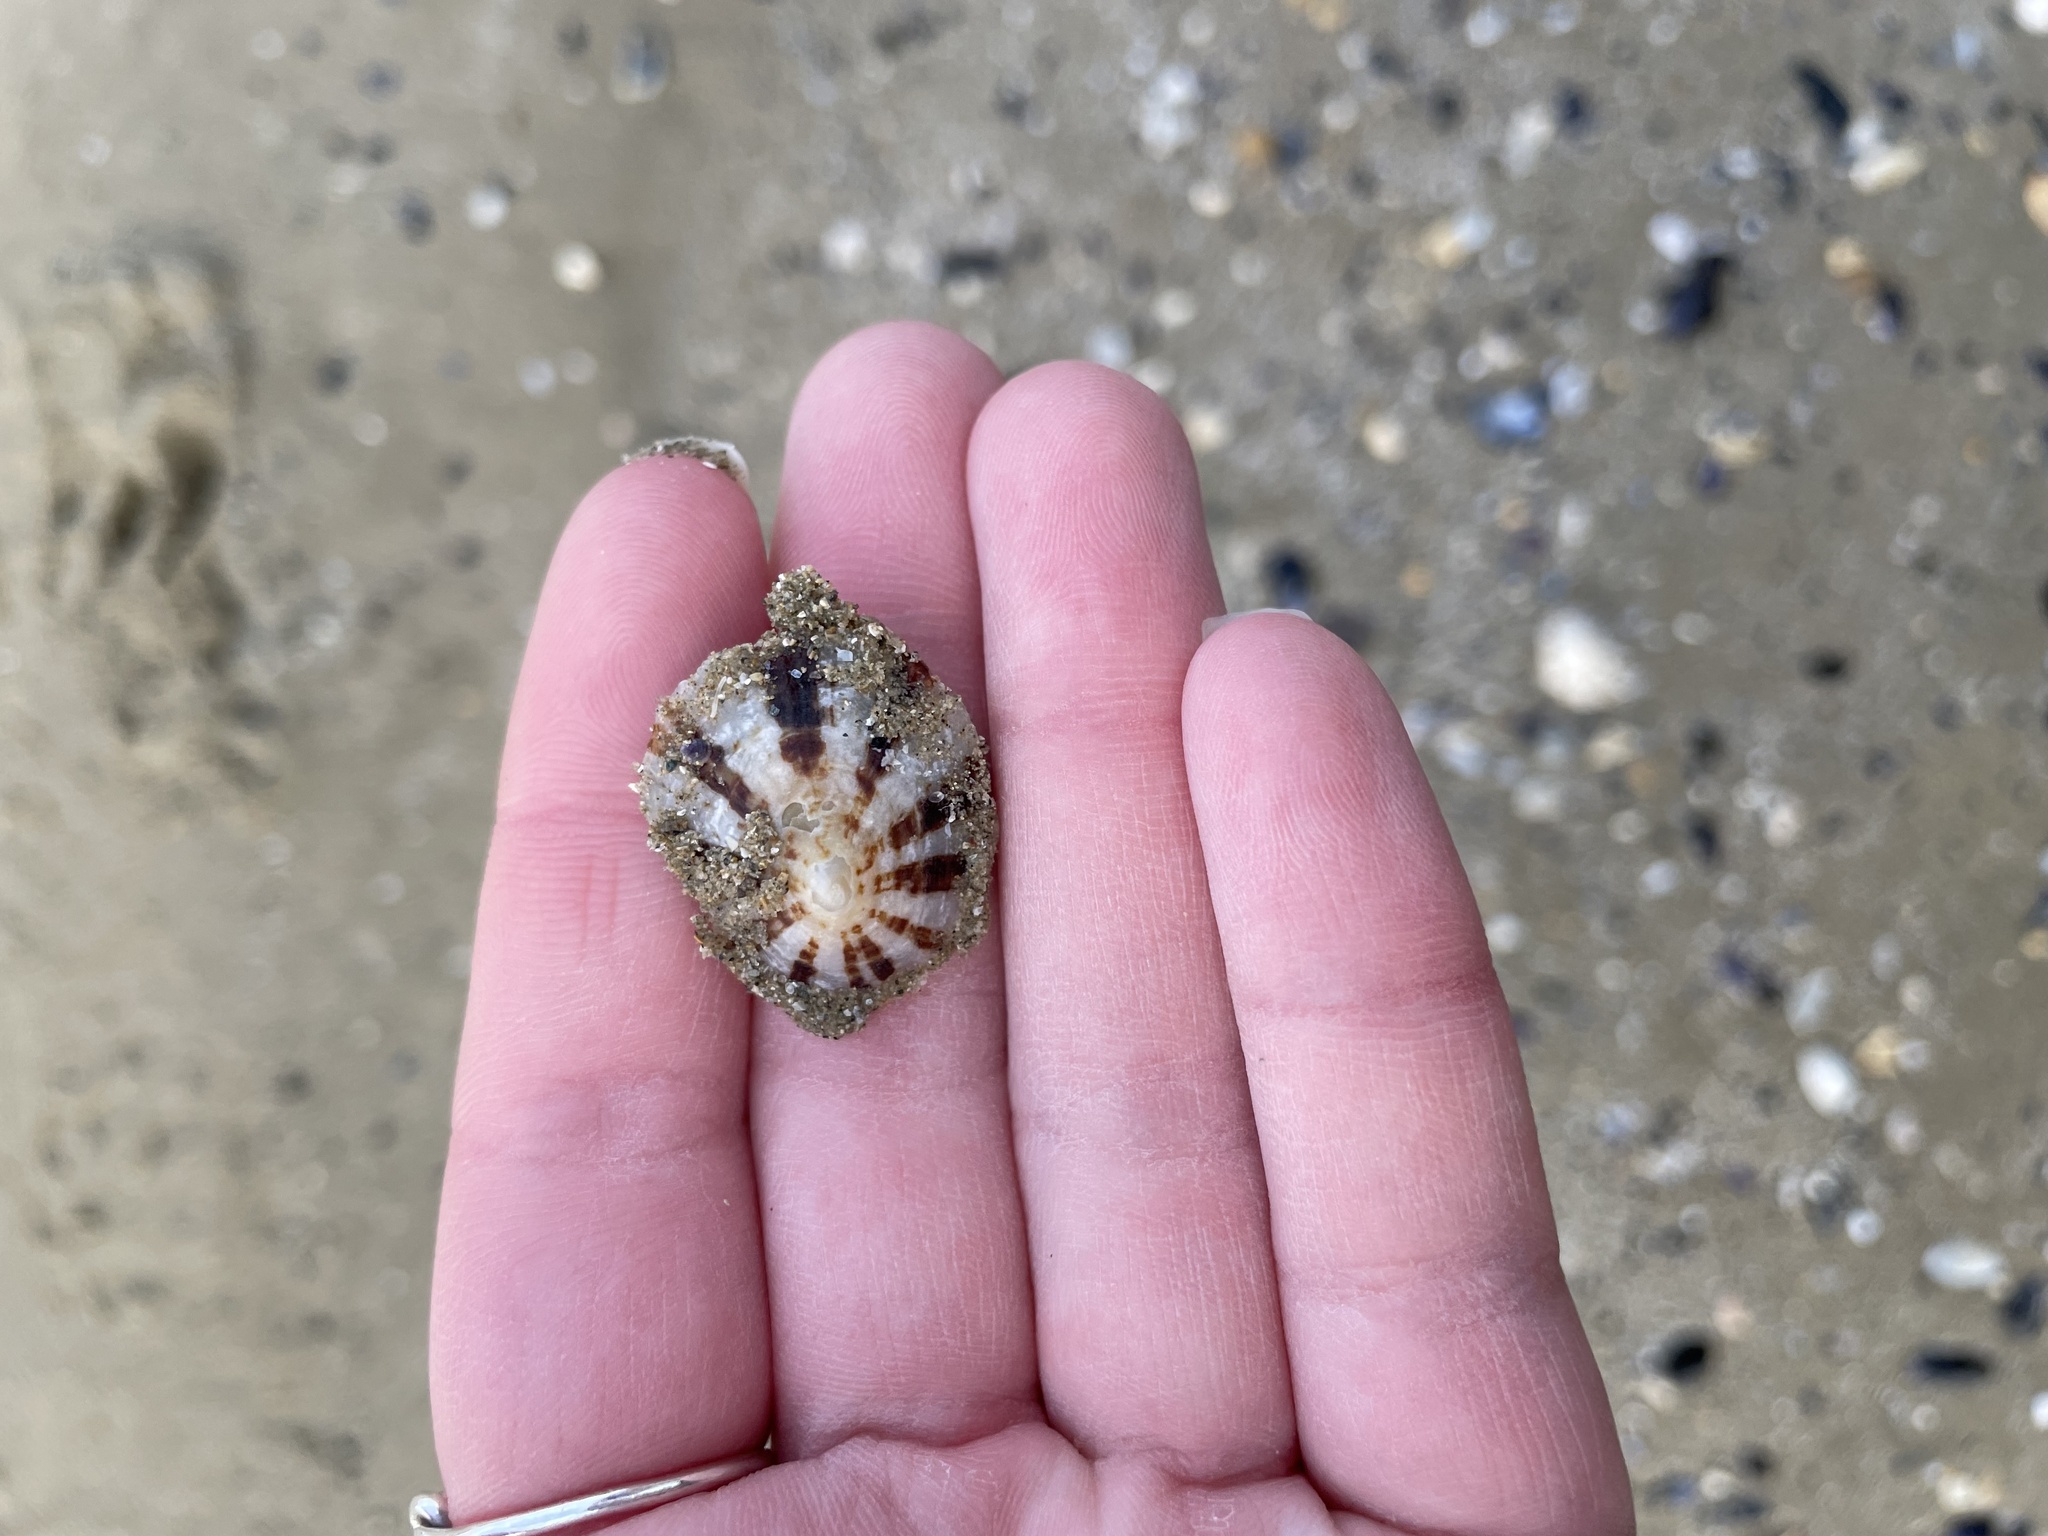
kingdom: Animalia
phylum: Mollusca
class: Gastropoda
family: Patellidae
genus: Patella
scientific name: Patella caerulea
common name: Mediterranean limpet
